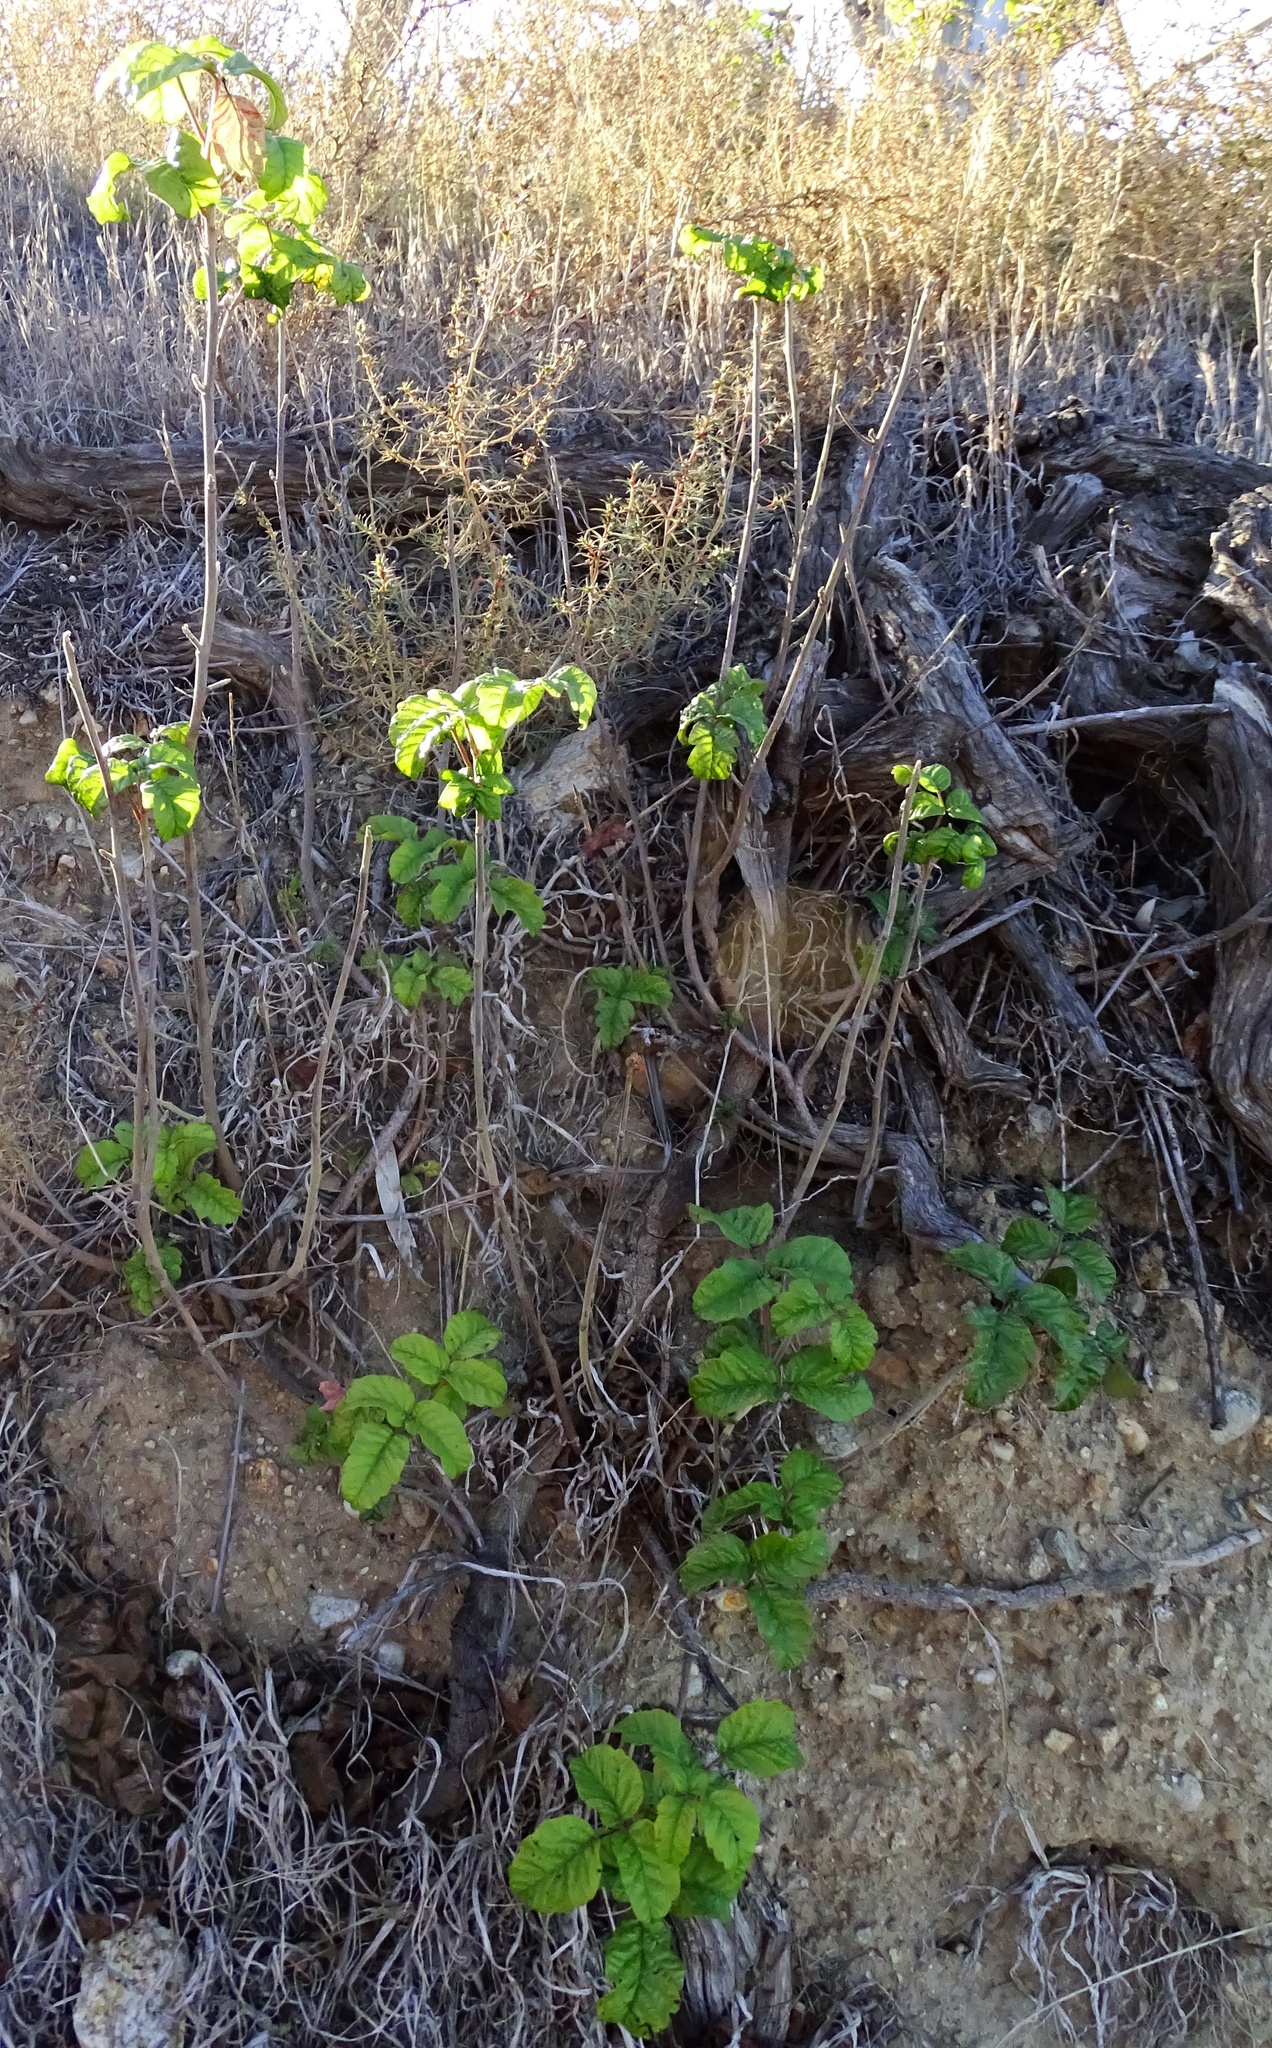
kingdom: Plantae
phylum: Tracheophyta
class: Magnoliopsida
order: Sapindales
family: Anacardiaceae
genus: Toxicodendron
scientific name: Toxicodendron diversilobum
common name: Pacific poison-oak
